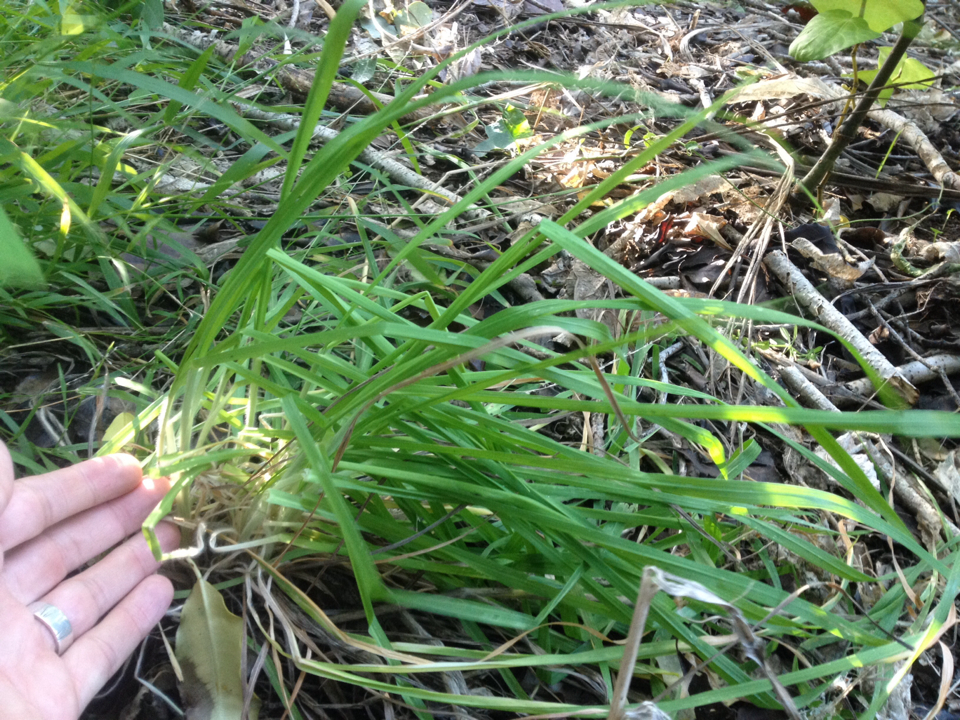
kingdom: Plantae
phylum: Tracheophyta
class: Liliopsida
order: Poales
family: Poaceae
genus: Dactylis
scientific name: Dactylis glomerata
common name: Orchardgrass
